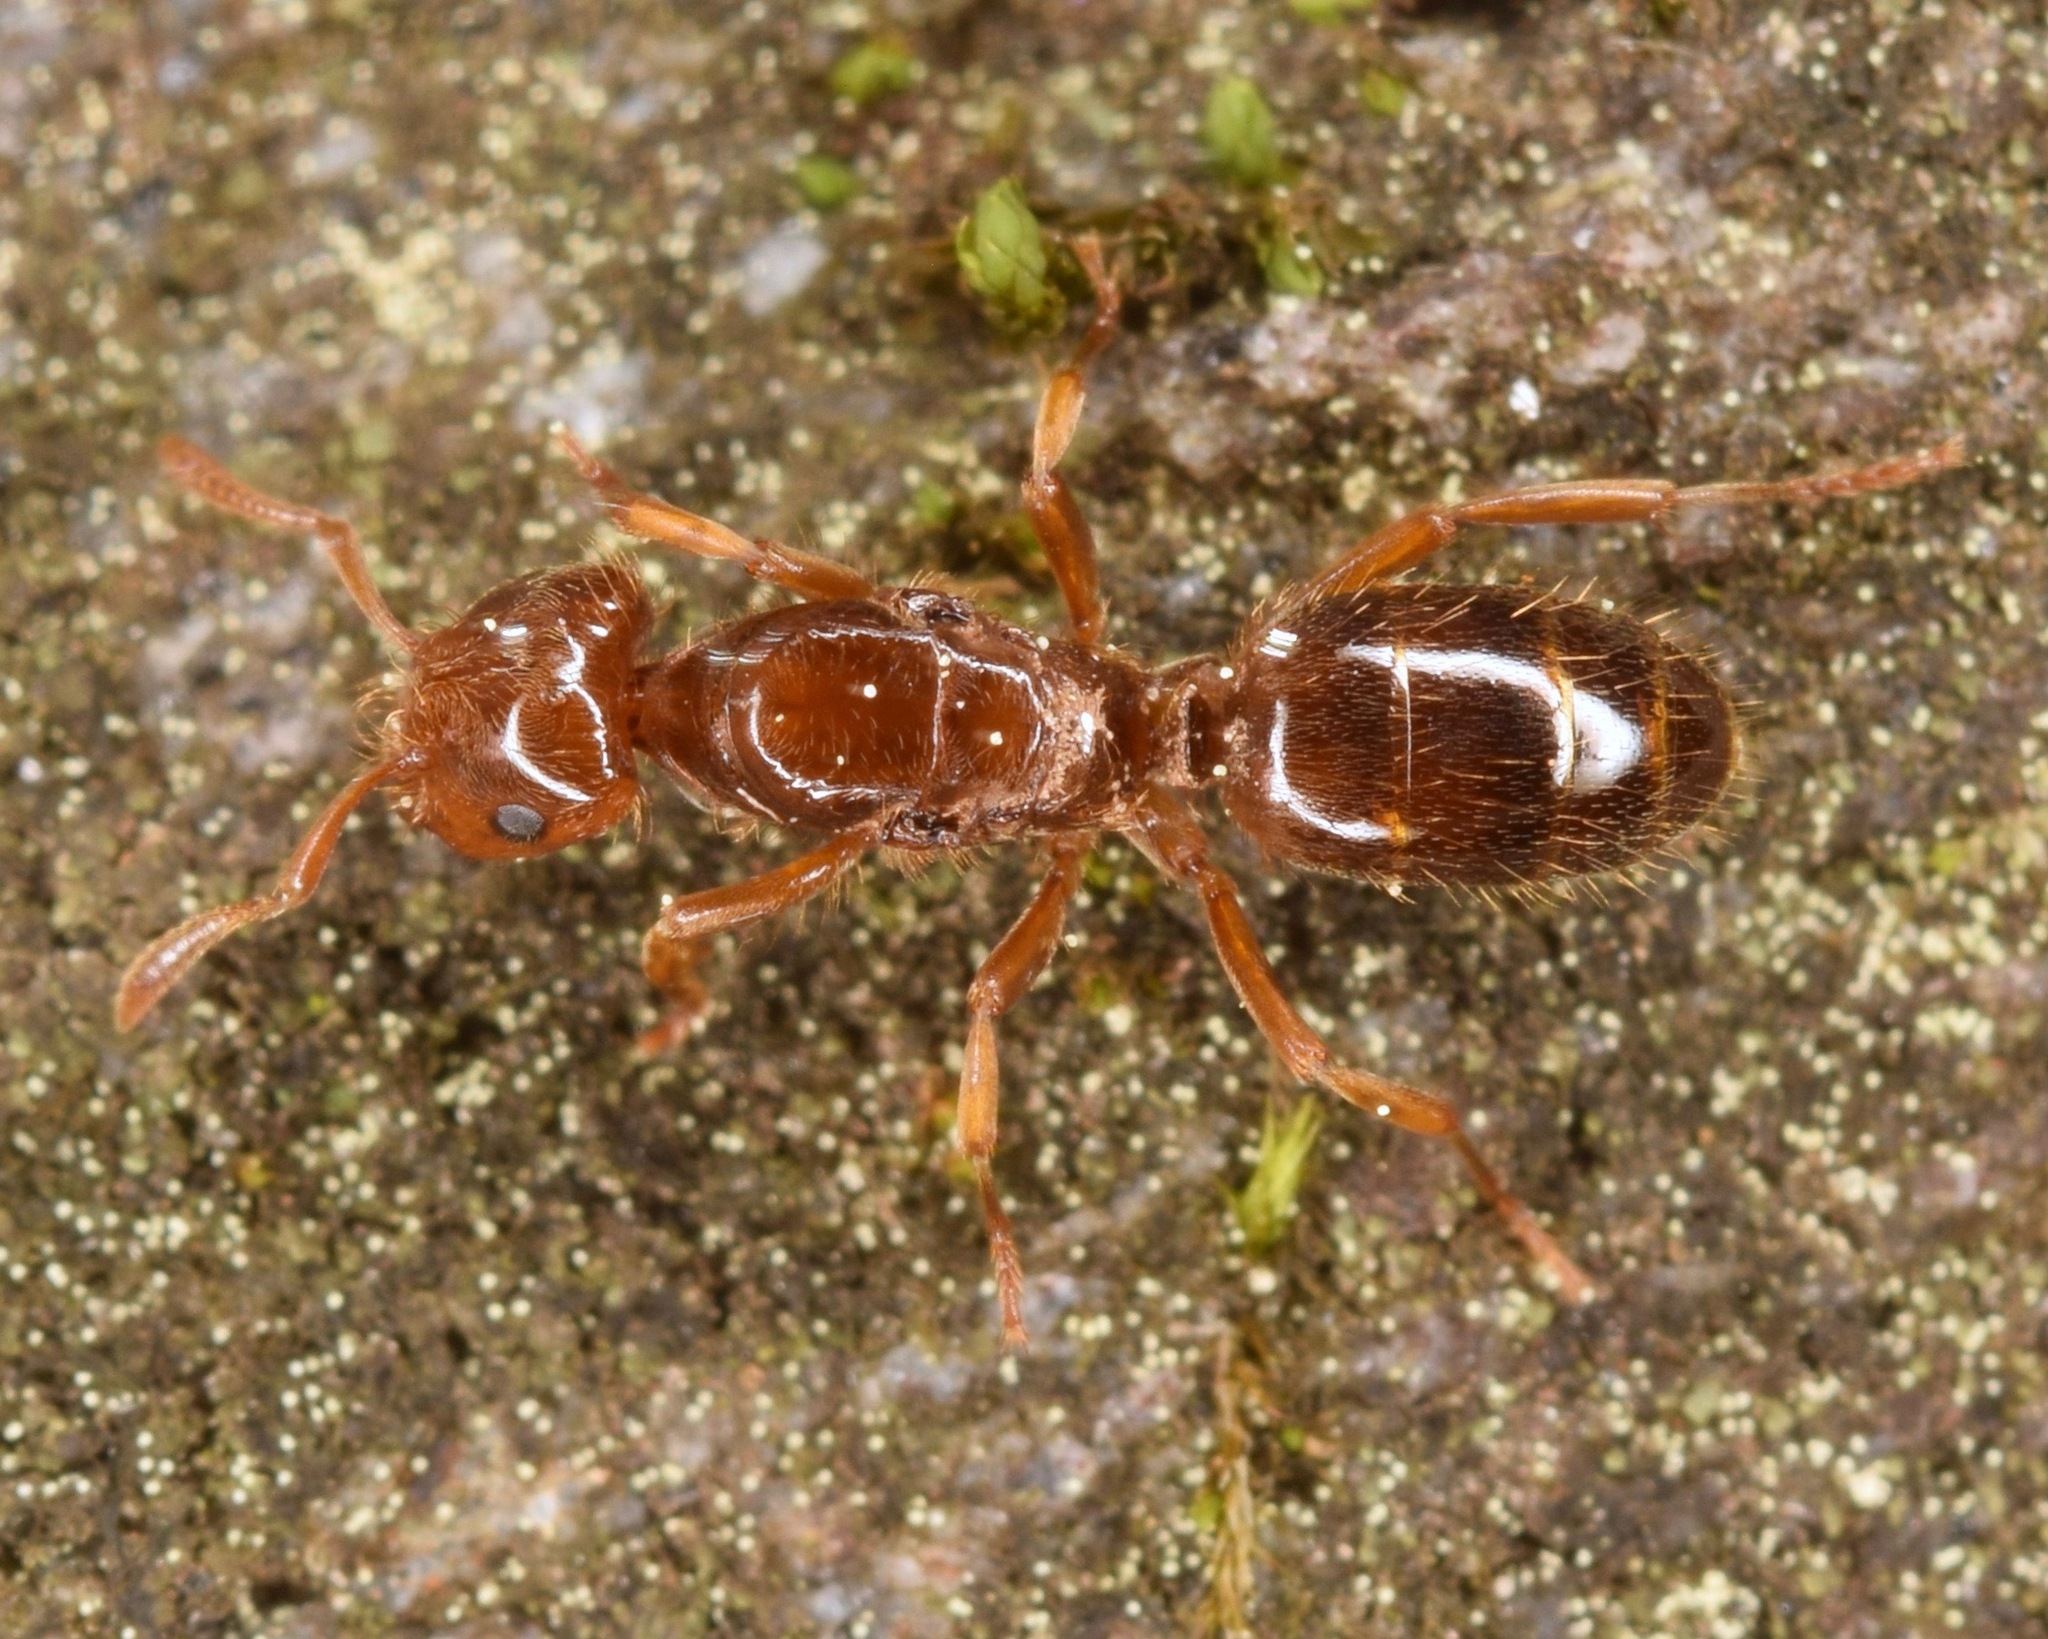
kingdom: Animalia
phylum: Arthropoda
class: Insecta
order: Hymenoptera
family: Formicidae
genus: Lasius
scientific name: Lasius claviger
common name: Common citronella ant
